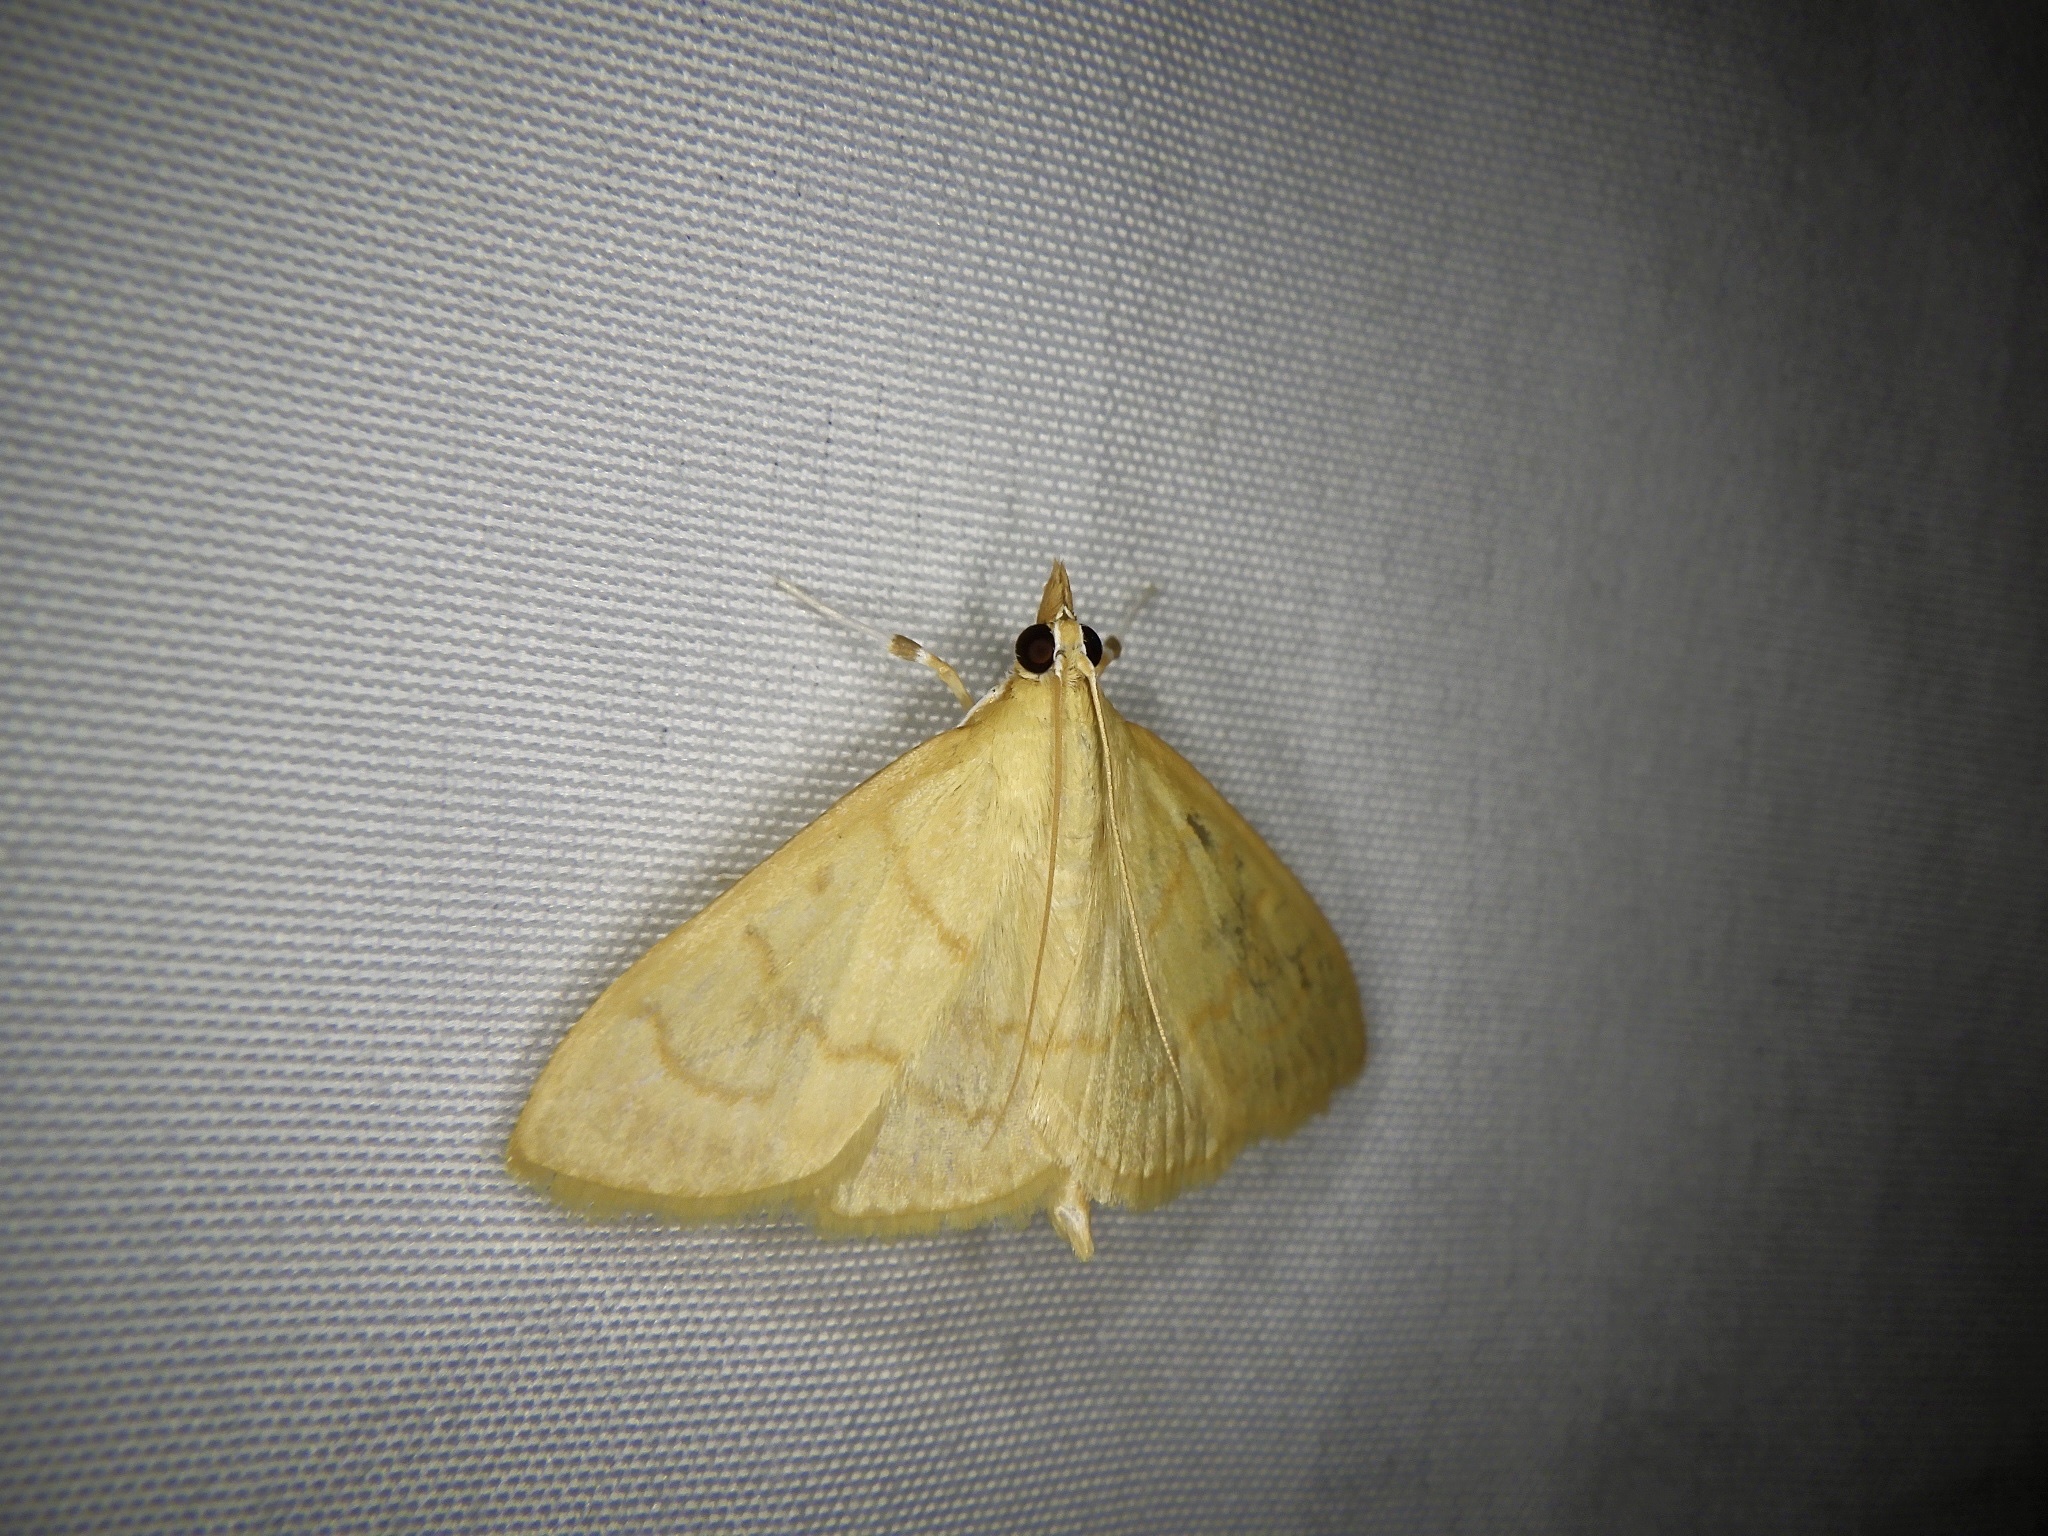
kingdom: Animalia
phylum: Arthropoda
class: Insecta
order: Lepidoptera
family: Crambidae
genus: Mimudea
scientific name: Mimudea puralis
